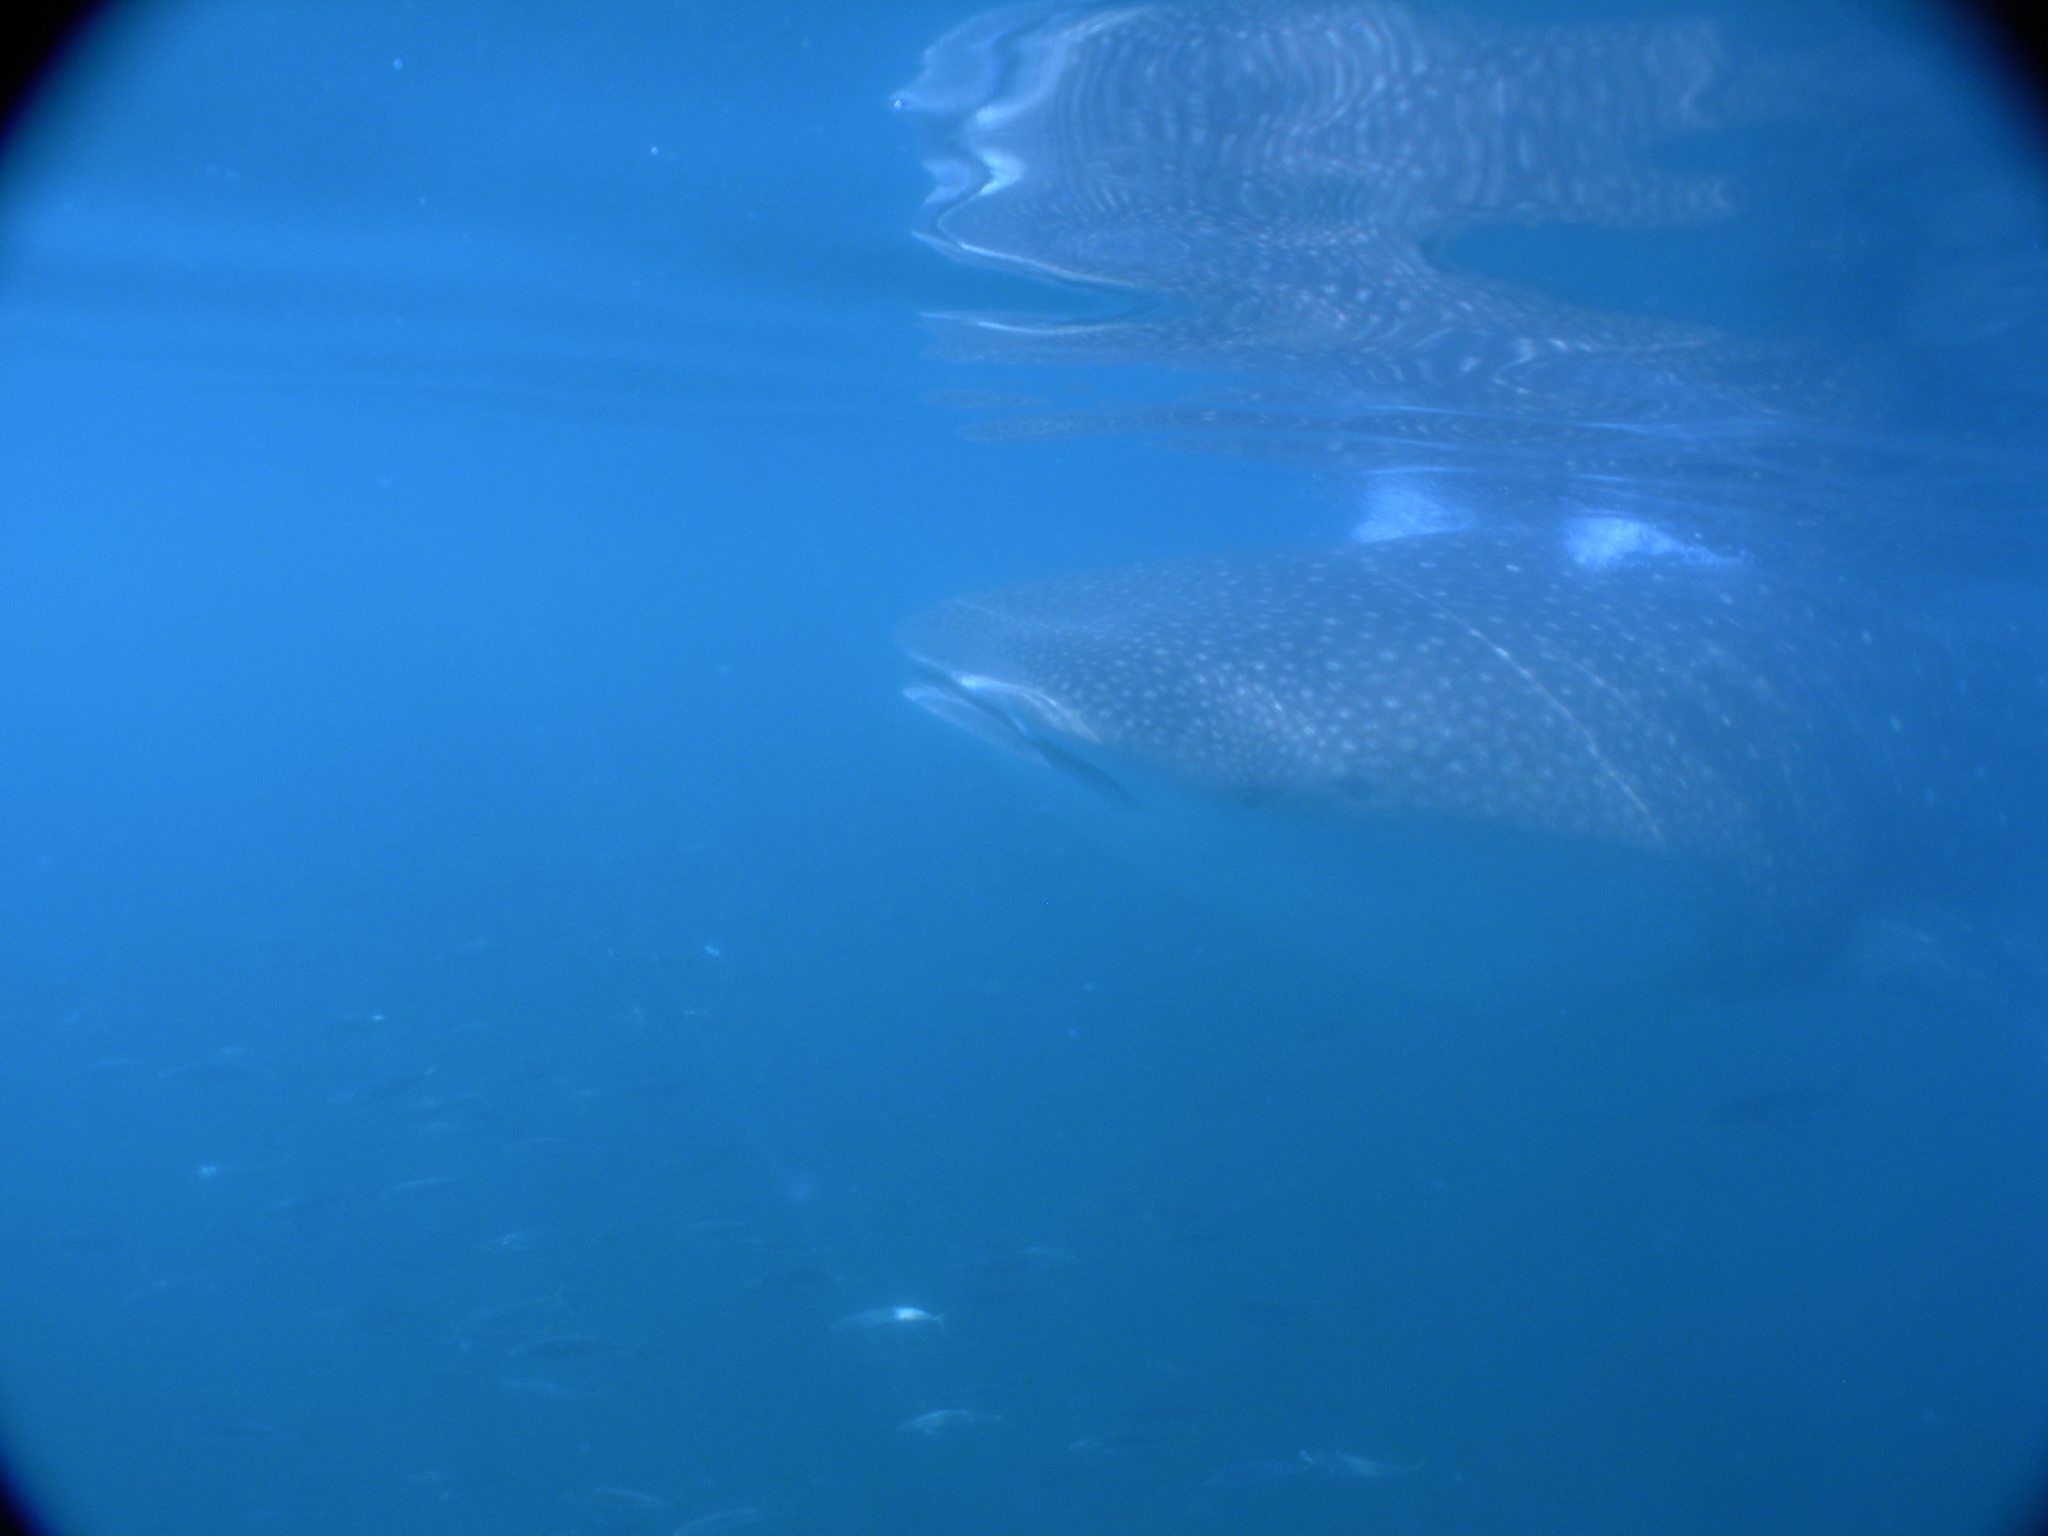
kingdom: Animalia
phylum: Chordata
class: Elasmobranchii
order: Orectolobiformes
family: Rhincodontidae
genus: Rhincodon
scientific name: Rhincodon typus
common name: Whale shark
